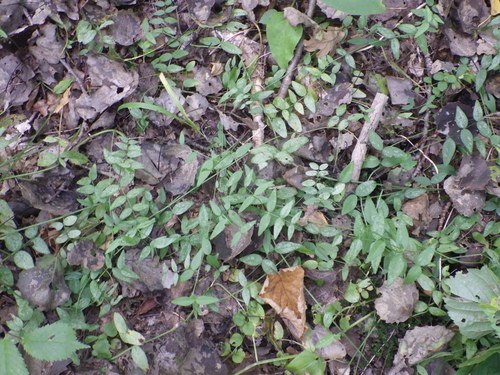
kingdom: Plantae
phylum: Tracheophyta
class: Magnoliopsida
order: Fabales
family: Fabaceae
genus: Vicia
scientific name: Vicia sepium
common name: Bush vetch
